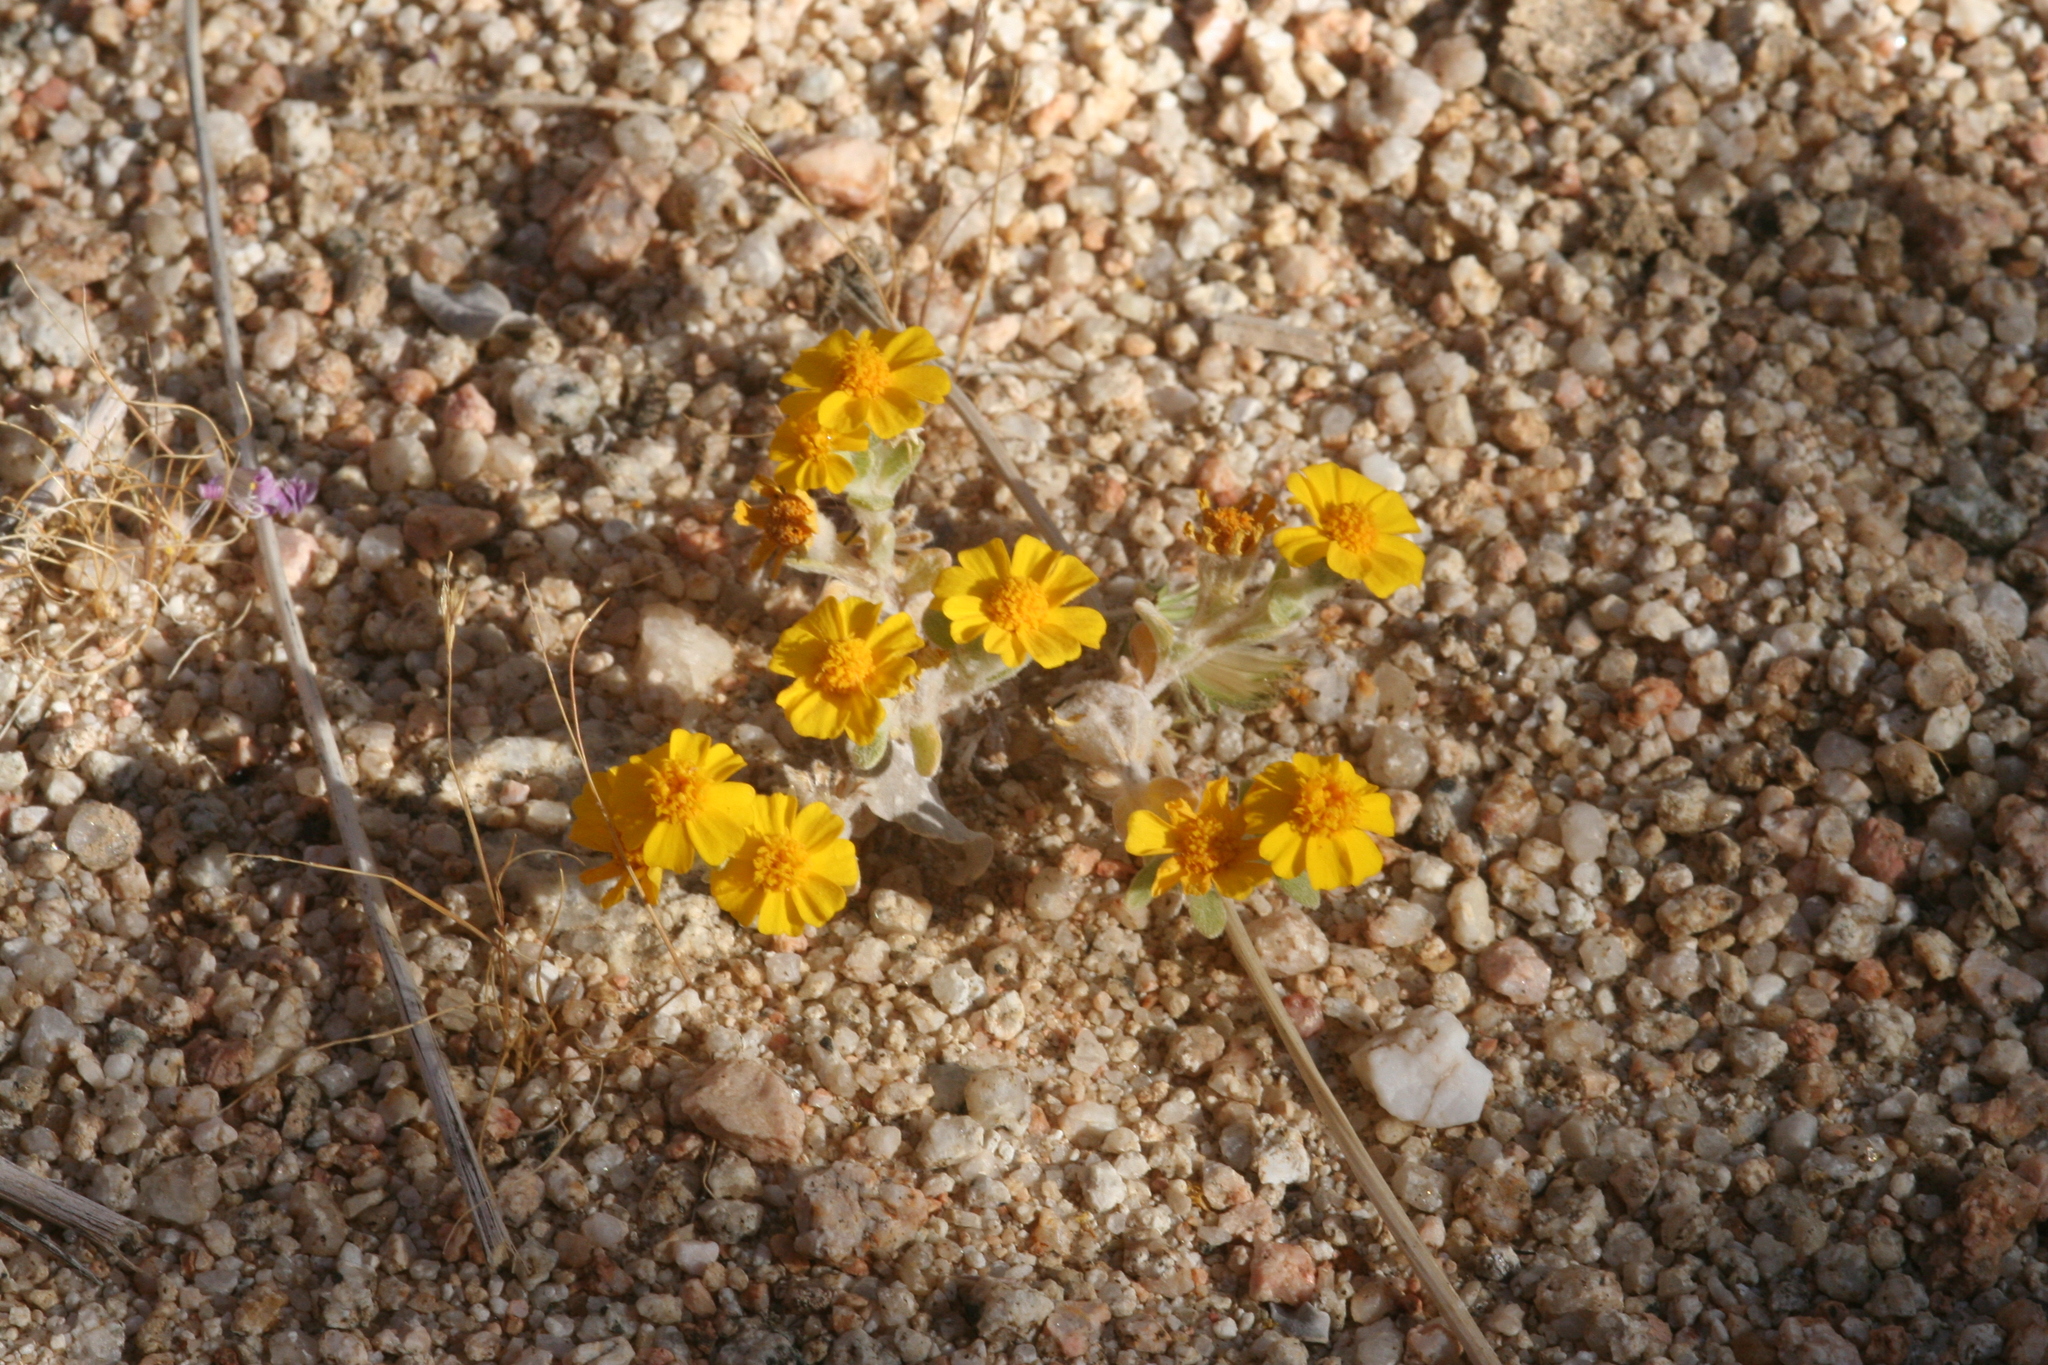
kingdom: Plantae
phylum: Tracheophyta
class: Magnoliopsida
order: Asterales
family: Asteraceae
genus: Eriophyllum
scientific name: Eriophyllum wallacei
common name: Wallace's woolly daisy
